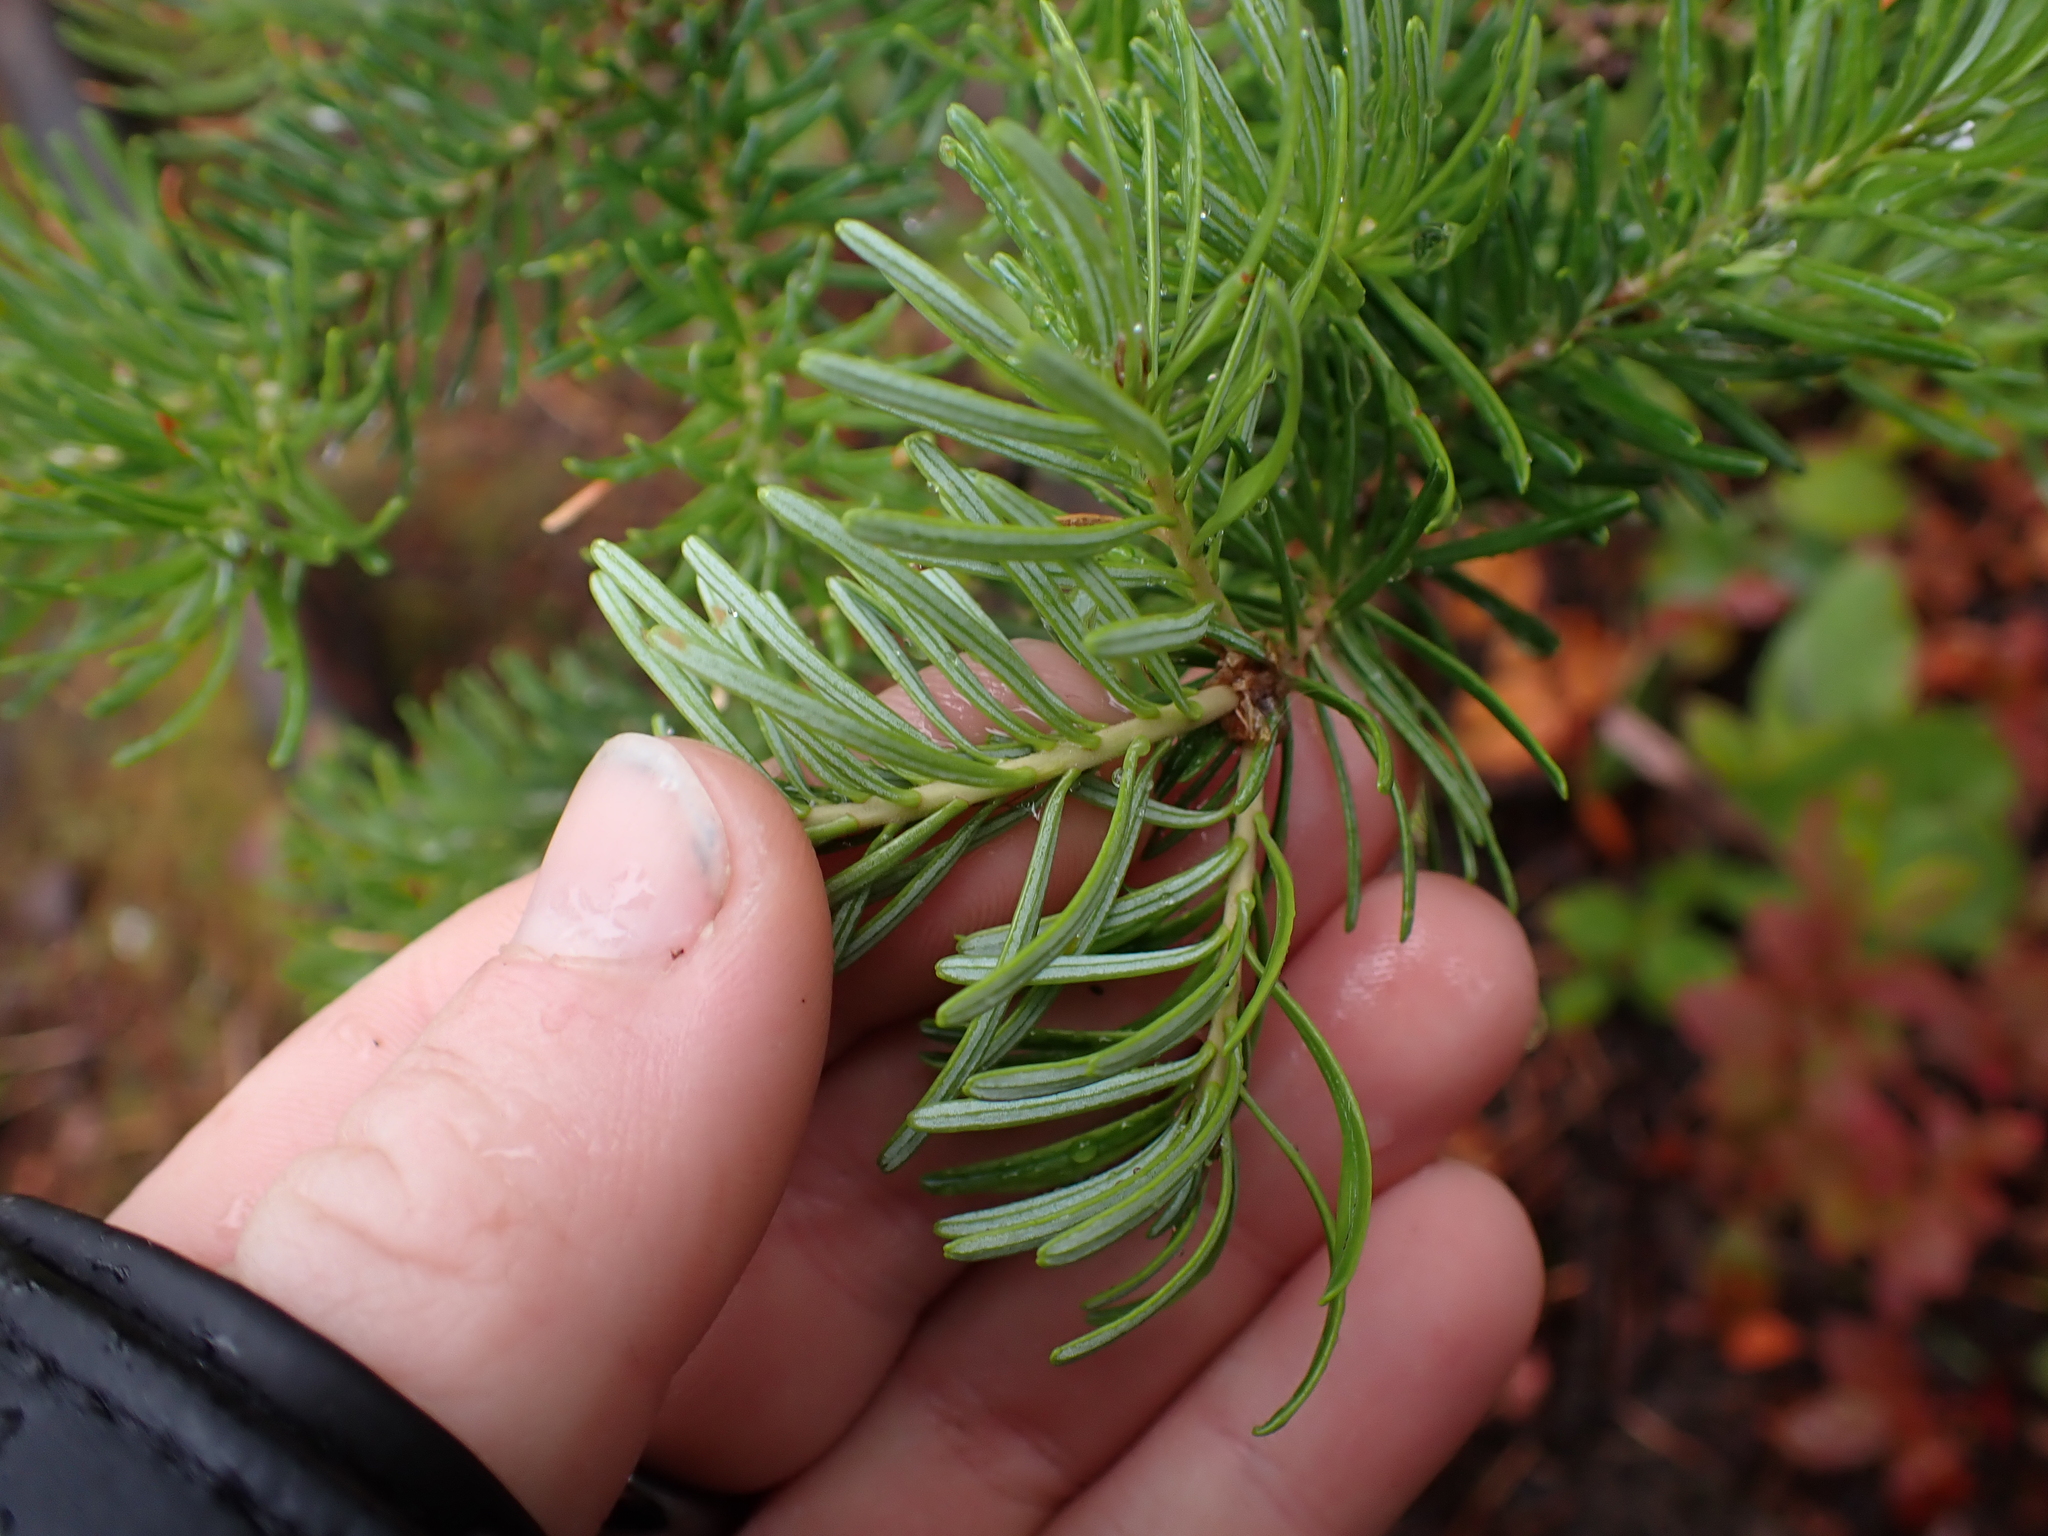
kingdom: Plantae
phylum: Tracheophyta
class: Pinopsida
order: Pinales
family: Pinaceae
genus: Abies
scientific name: Abies lasiocarpa
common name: Subalpine fir
